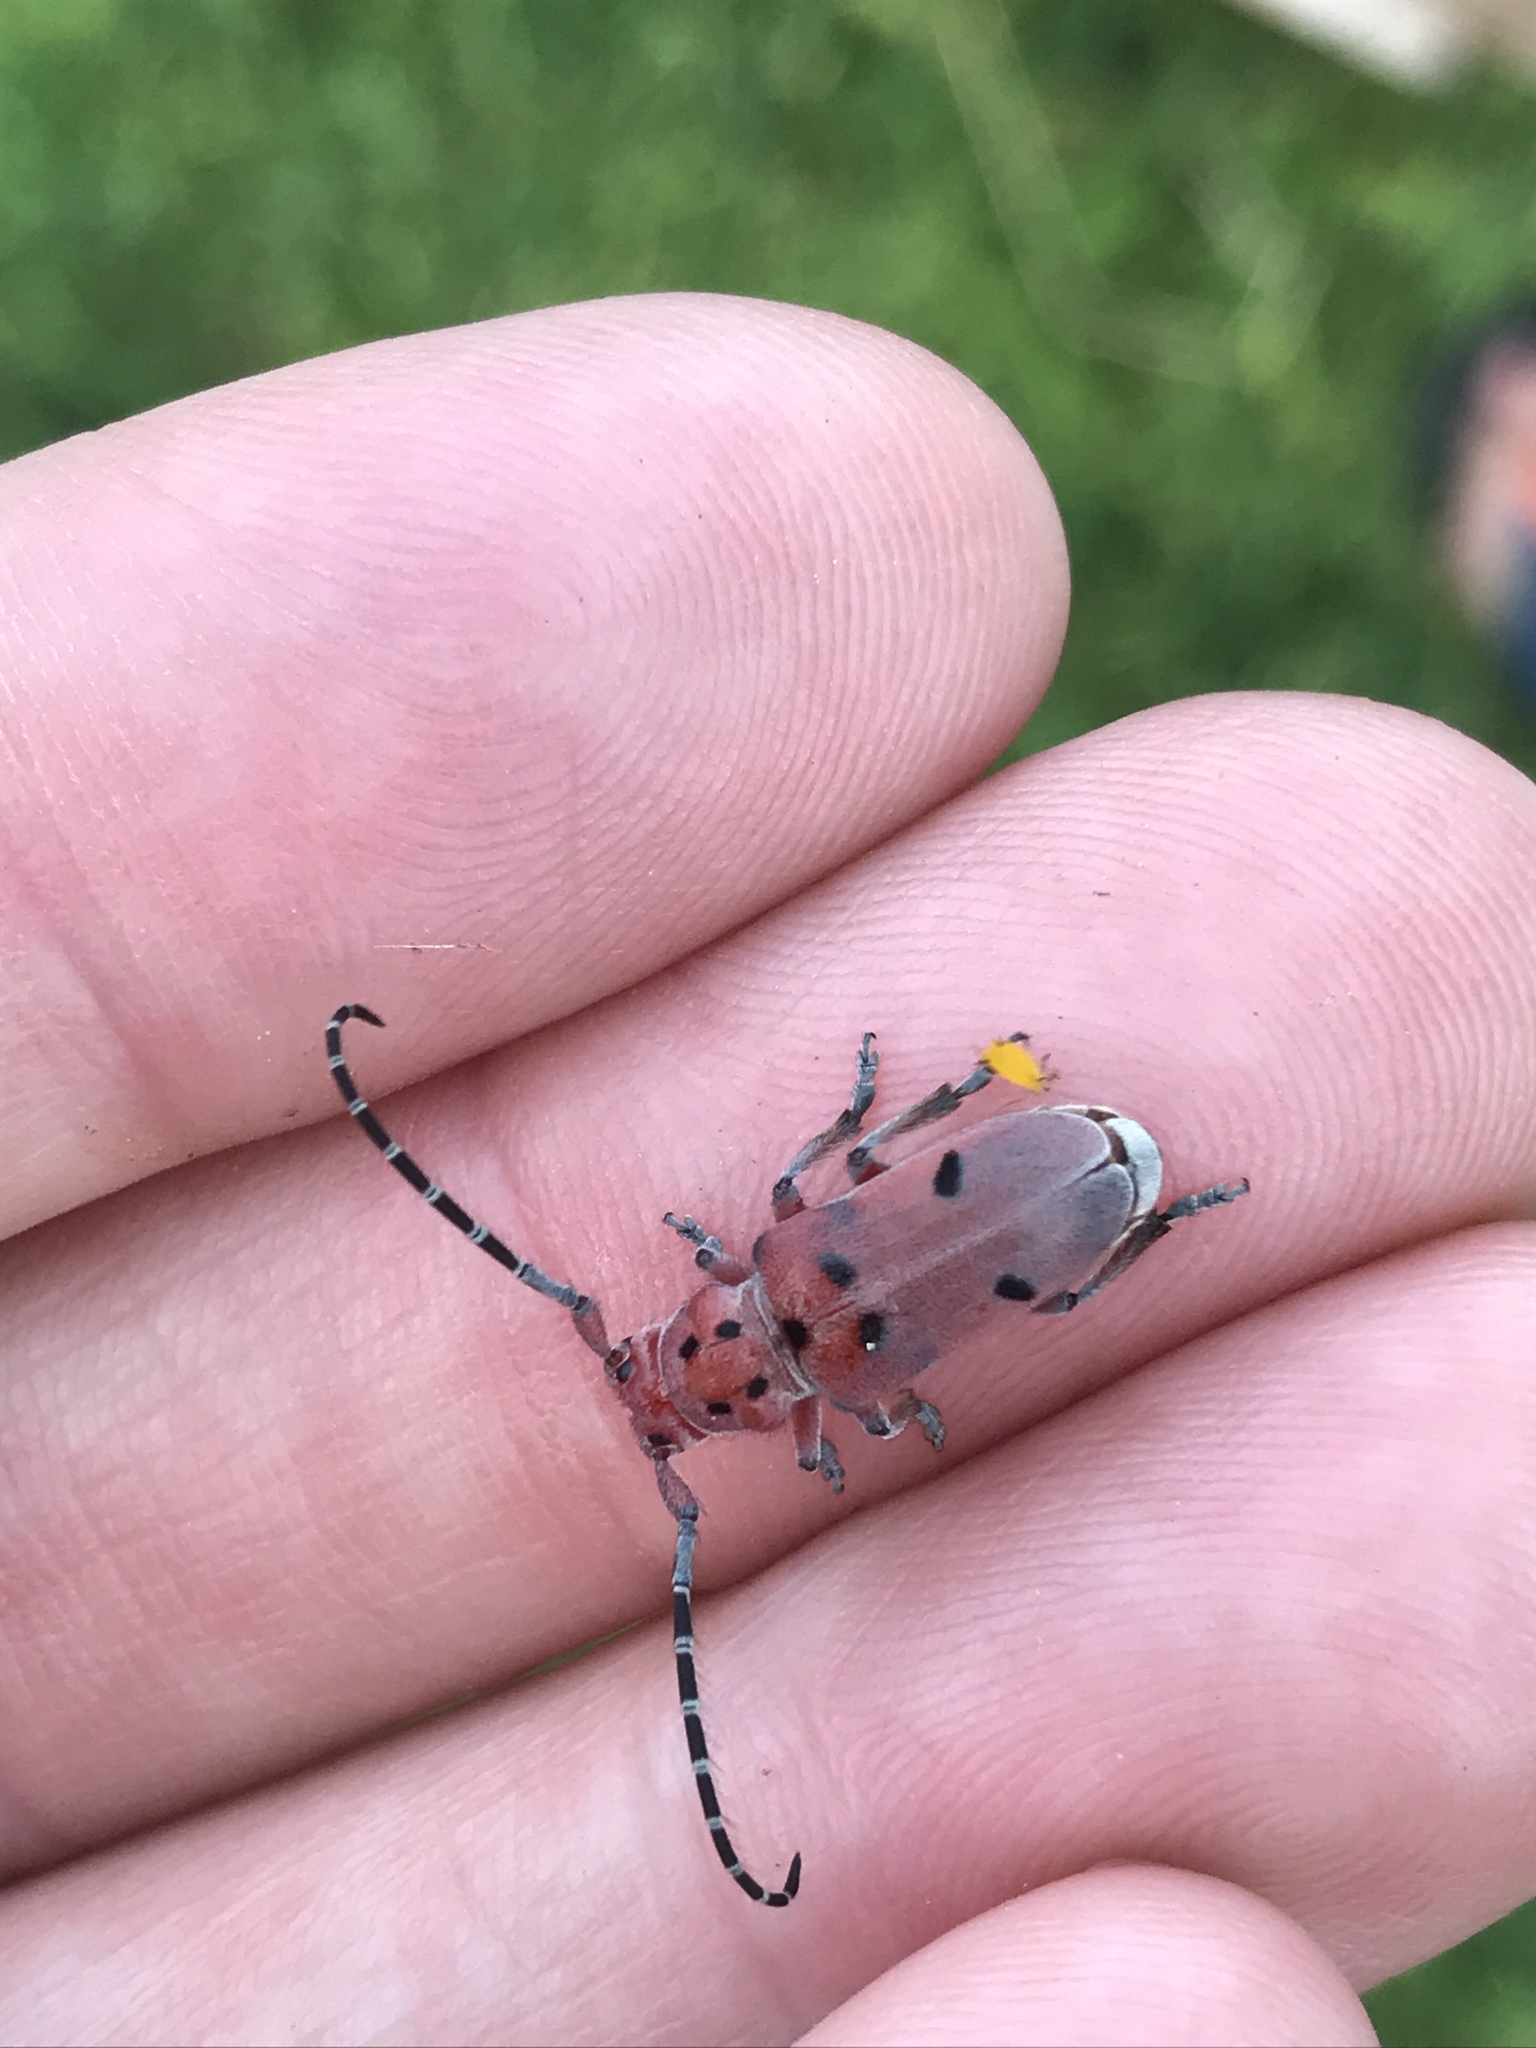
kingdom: Animalia
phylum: Arthropoda
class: Insecta
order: Coleoptera
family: Cerambycidae
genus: Tetraopes
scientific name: Tetraopes femoratus
